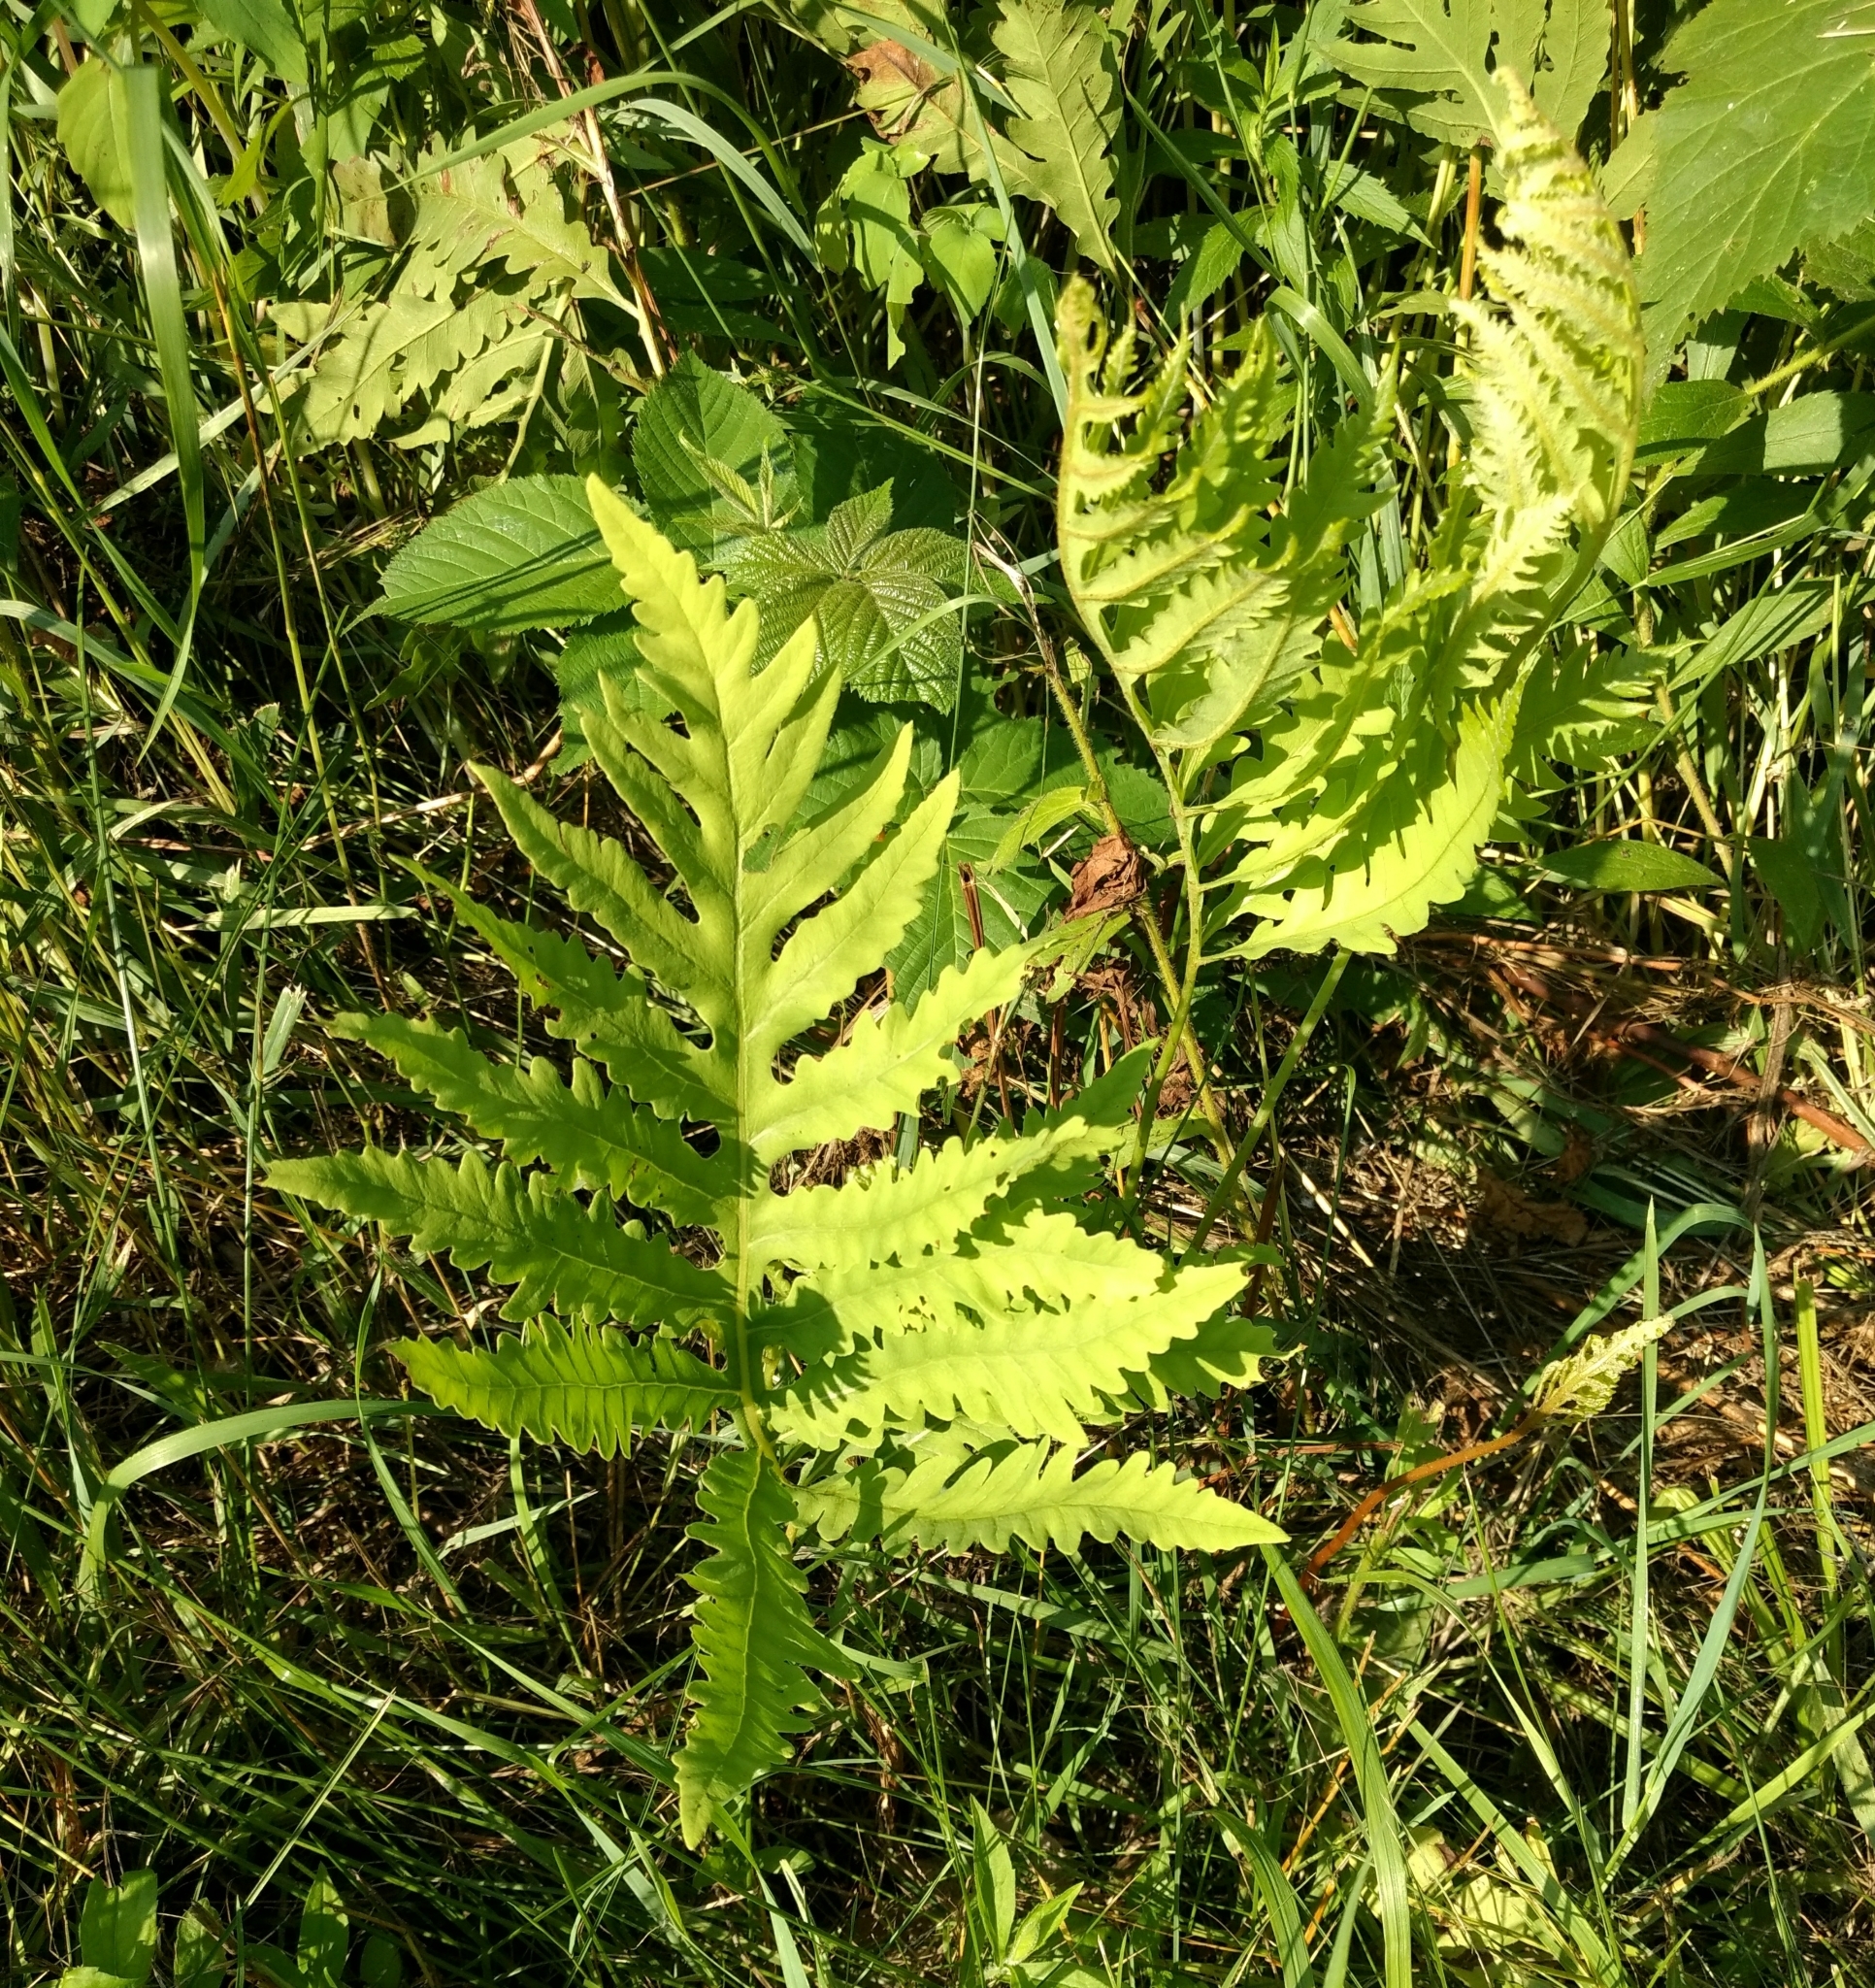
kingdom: Plantae
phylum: Tracheophyta
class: Polypodiopsida
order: Polypodiales
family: Onocleaceae
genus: Onoclea
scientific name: Onoclea sensibilis
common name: Sensitive fern
